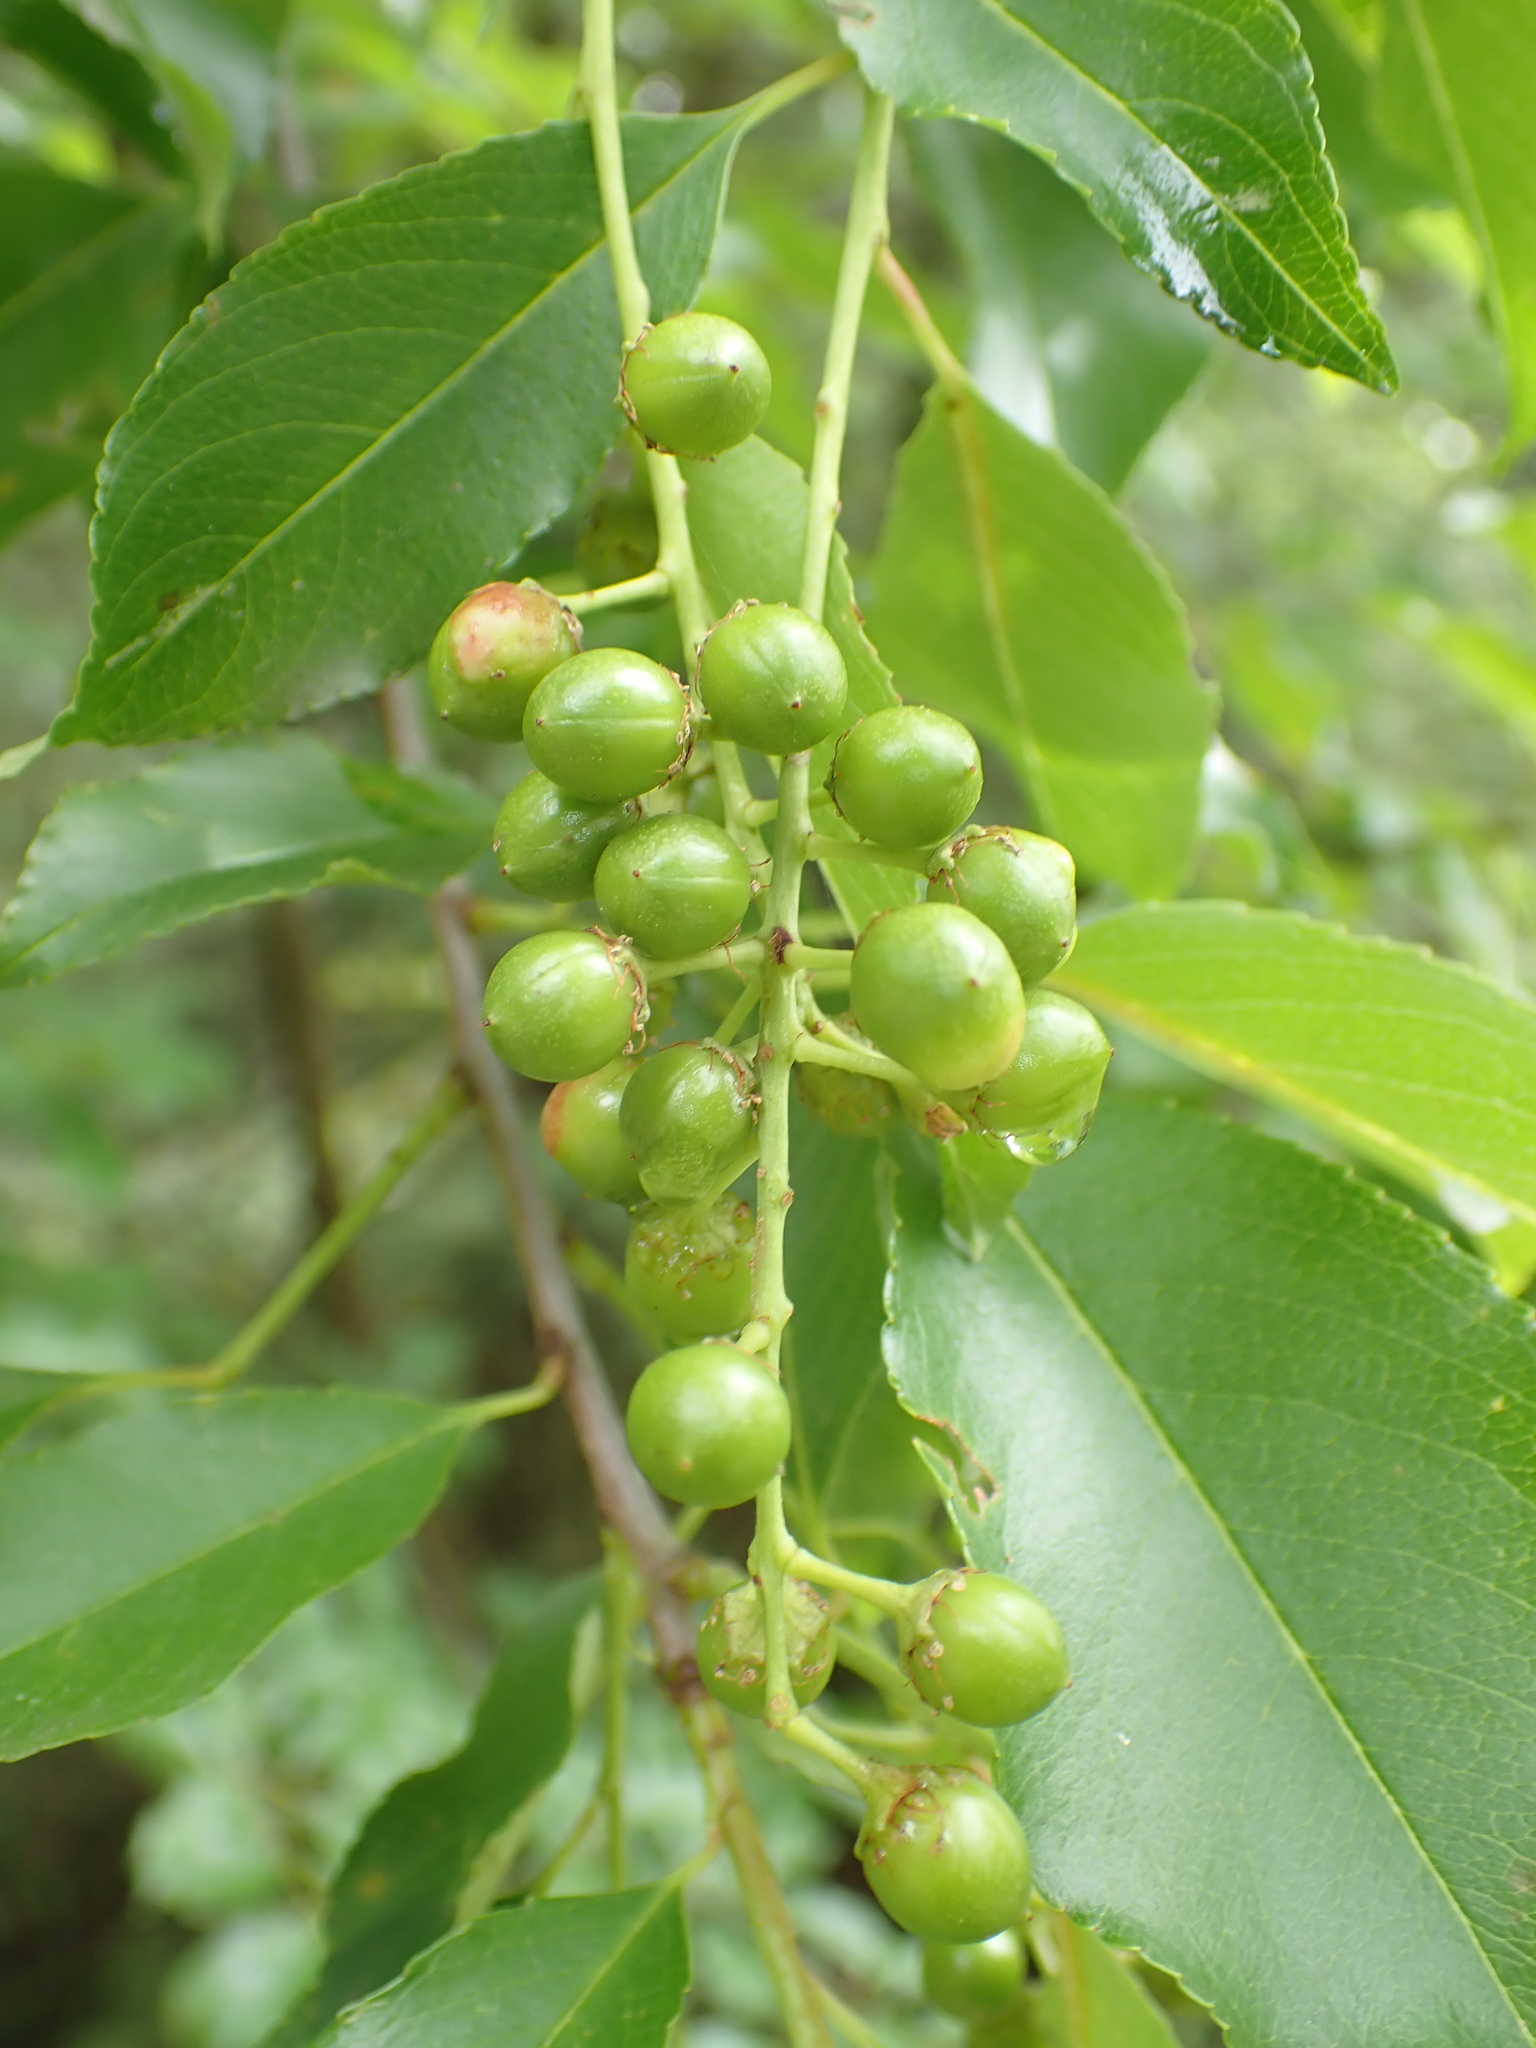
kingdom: Plantae
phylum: Tracheophyta
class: Magnoliopsida
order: Rosales
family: Rosaceae
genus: Prunus
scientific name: Prunus serotina
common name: Black cherry
